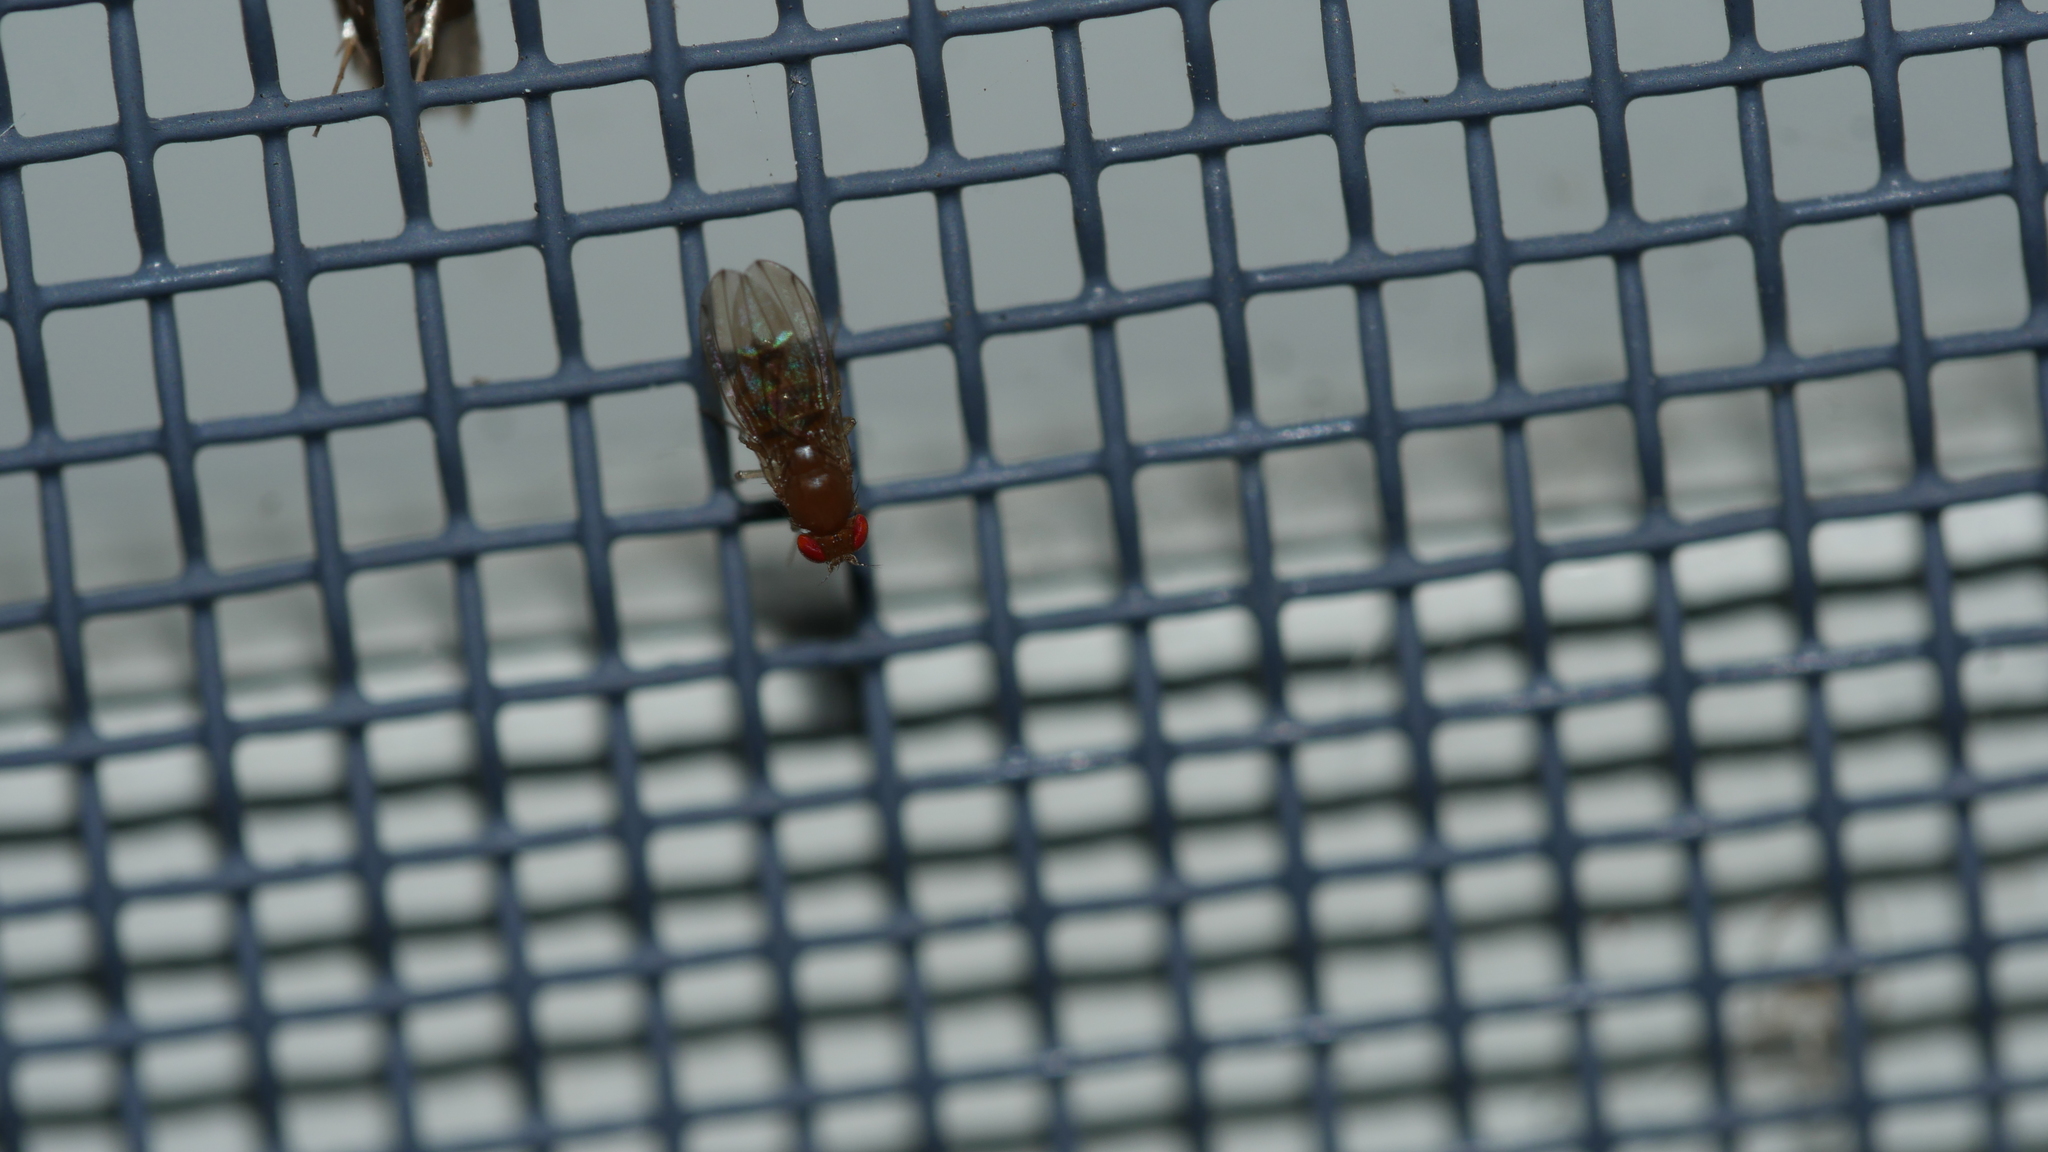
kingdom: Animalia
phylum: Arthropoda
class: Insecta
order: Diptera
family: Drosophilidae
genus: Drosophila
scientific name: Drosophila
